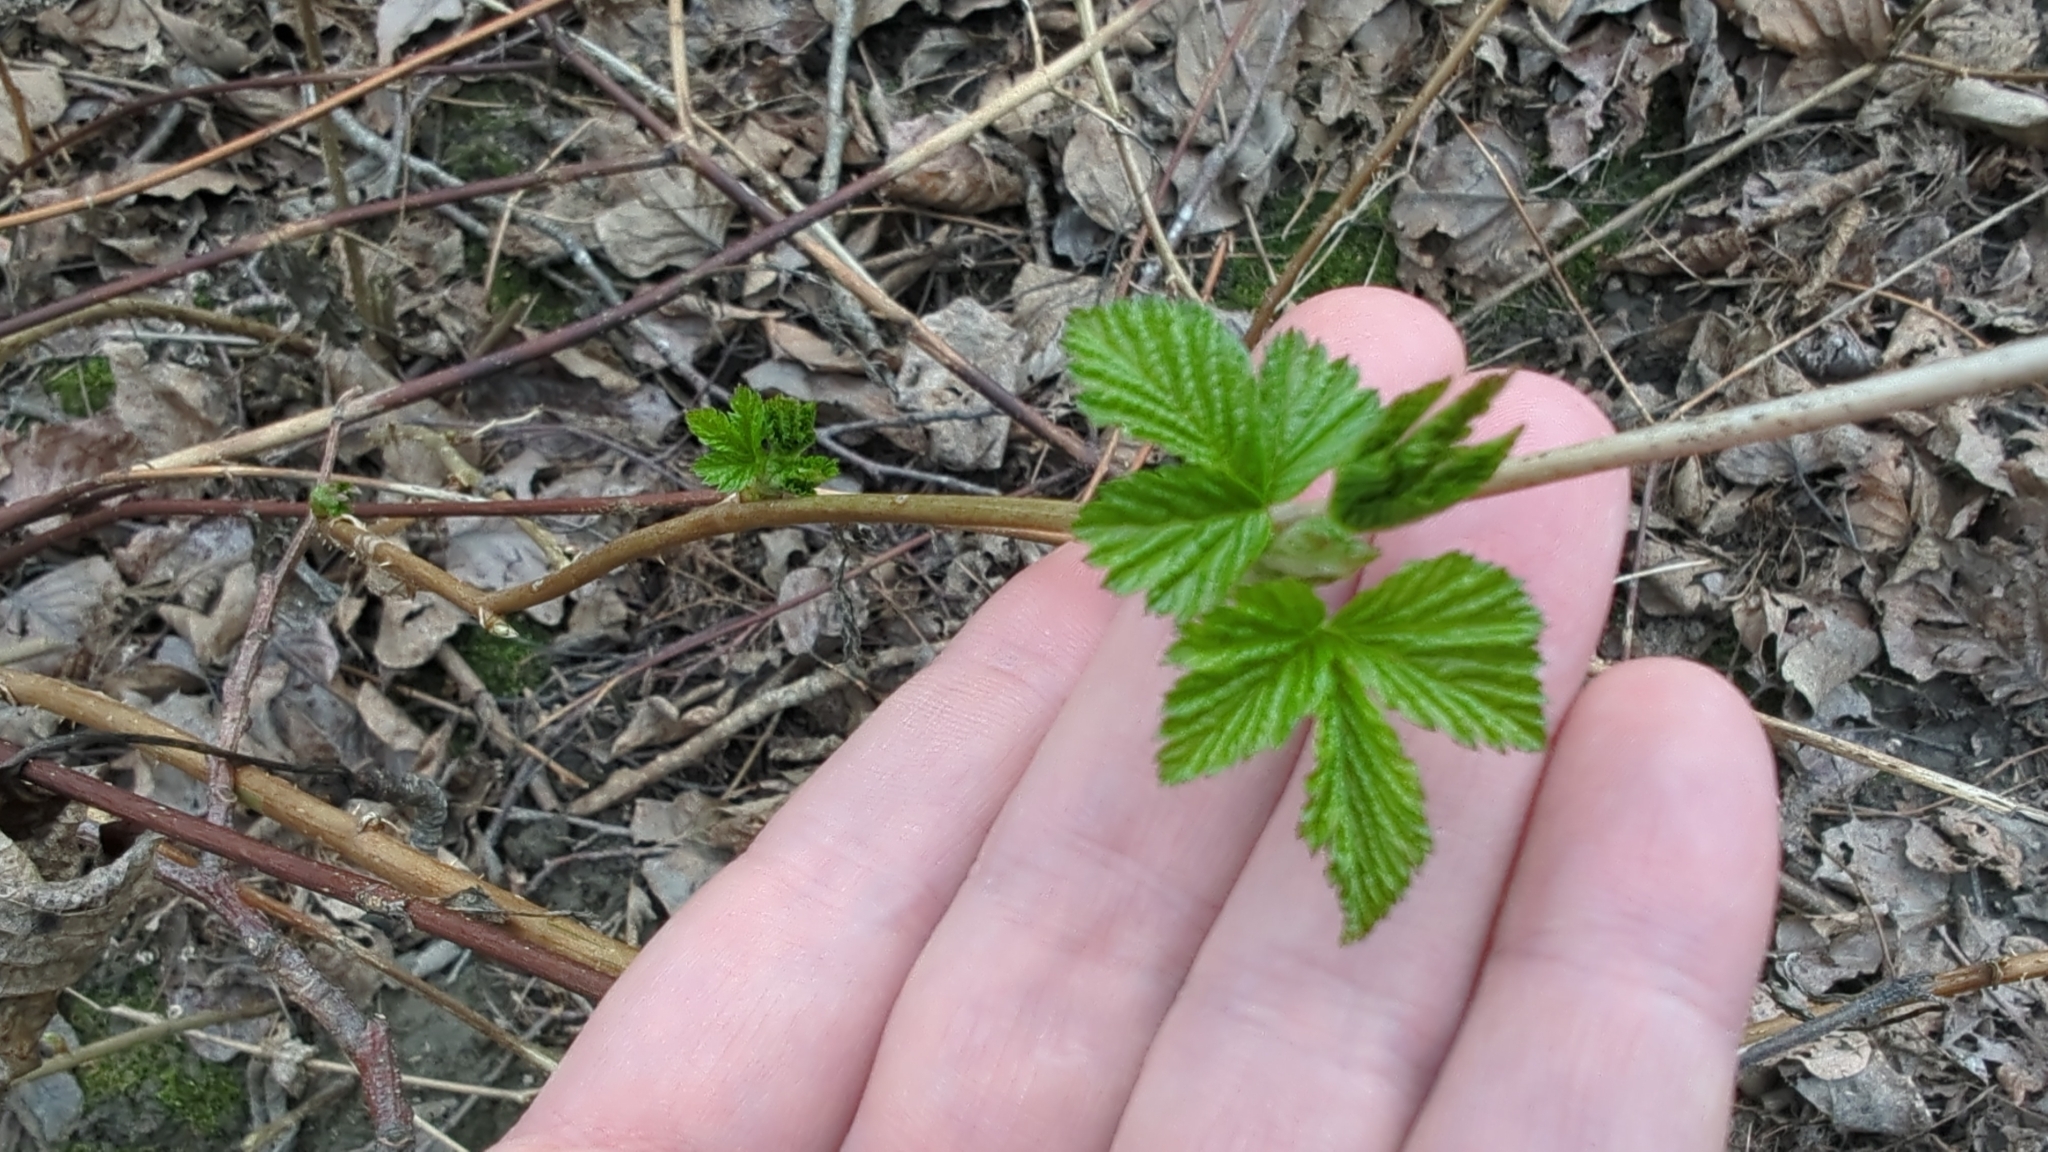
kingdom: Plantae
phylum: Tracheophyta
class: Magnoliopsida
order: Rosales
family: Rosaceae
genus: Rubus
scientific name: Rubus spectabilis
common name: Salmonberry
